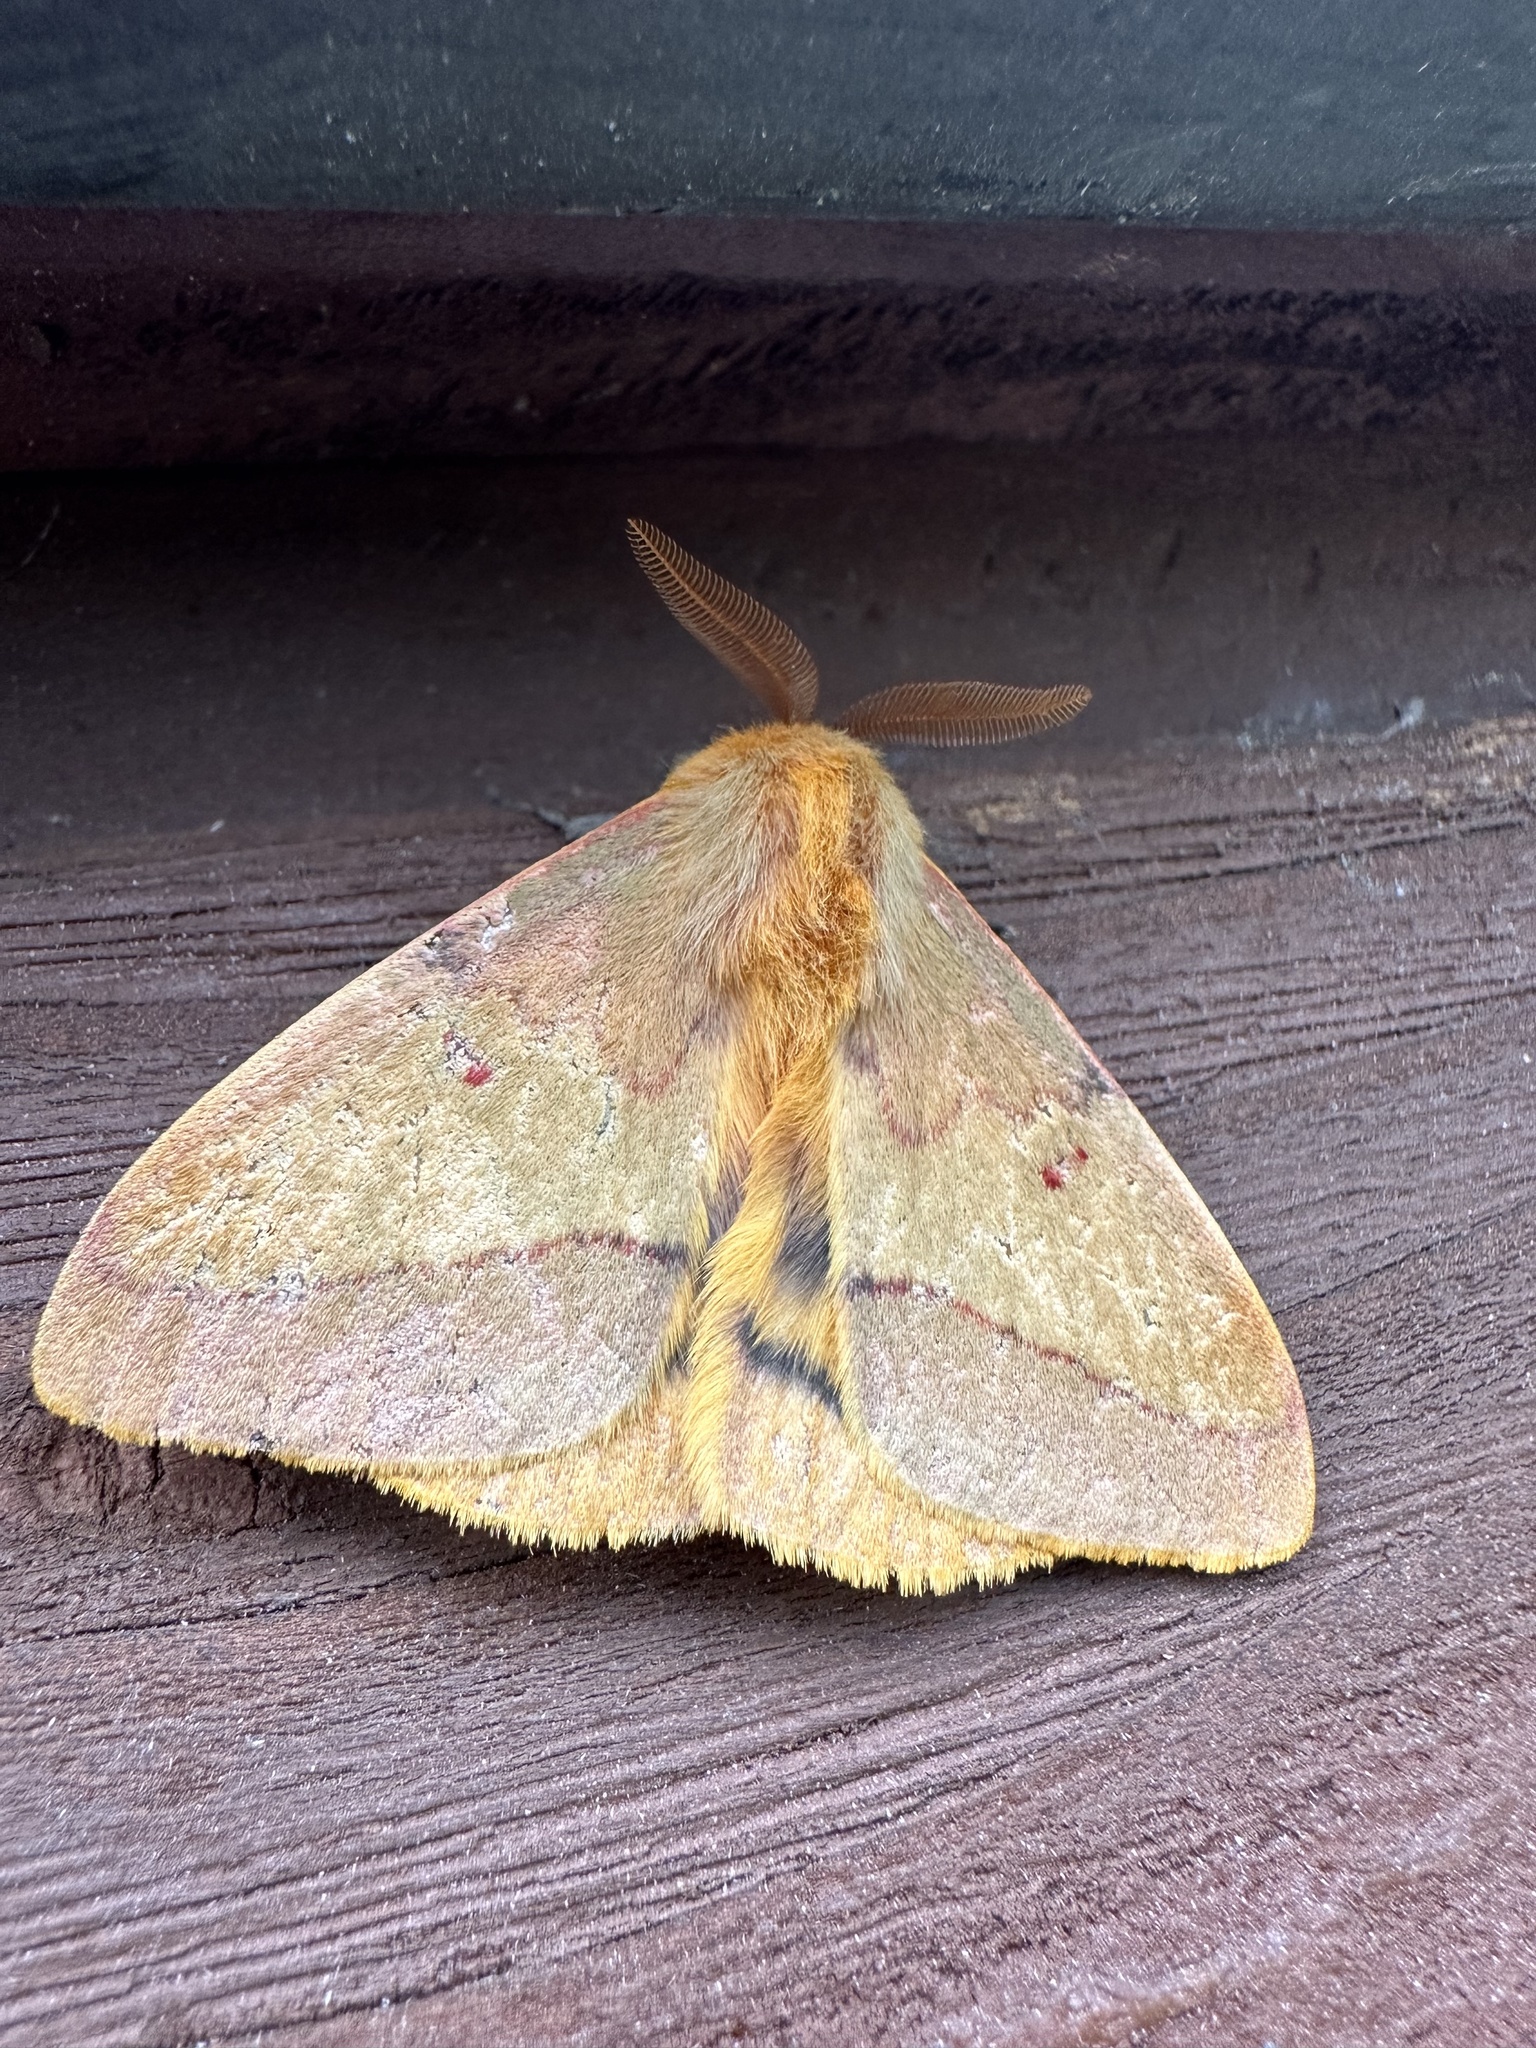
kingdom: Animalia
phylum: Arthropoda
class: Insecta
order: Lepidoptera
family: Saturniidae
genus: Adetomeris
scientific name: Adetomeris erythrops
